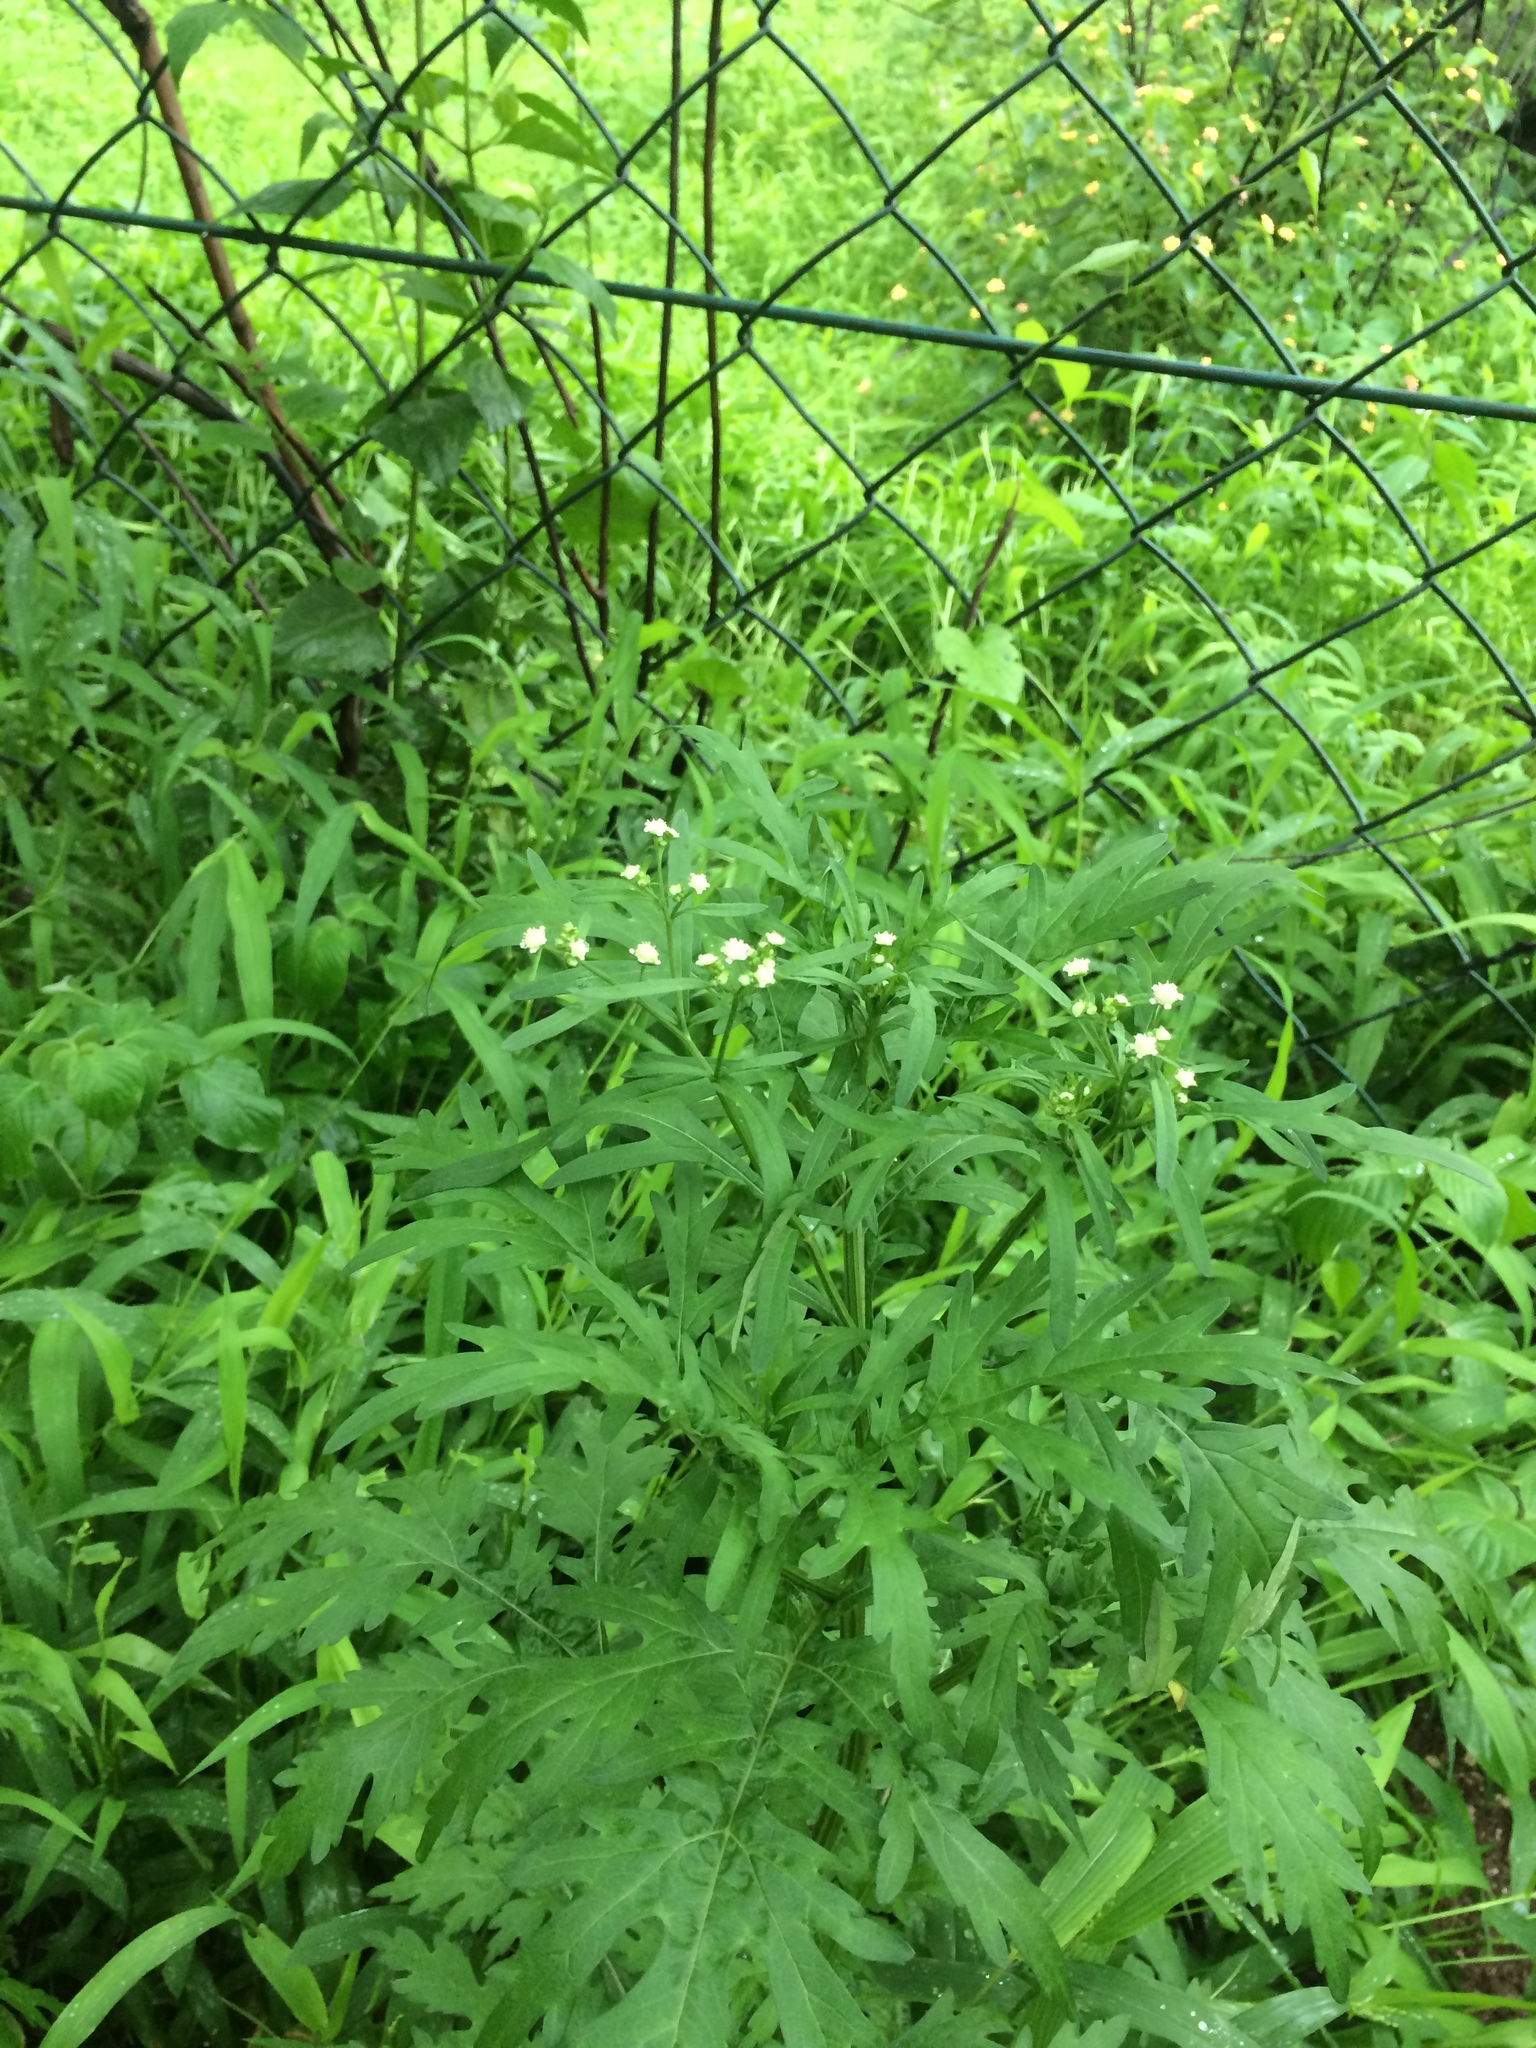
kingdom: Plantae
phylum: Tracheophyta
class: Magnoliopsida
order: Asterales
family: Asteraceae
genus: Parthenium
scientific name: Parthenium hysterophorus
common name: Santa maria feverfew
